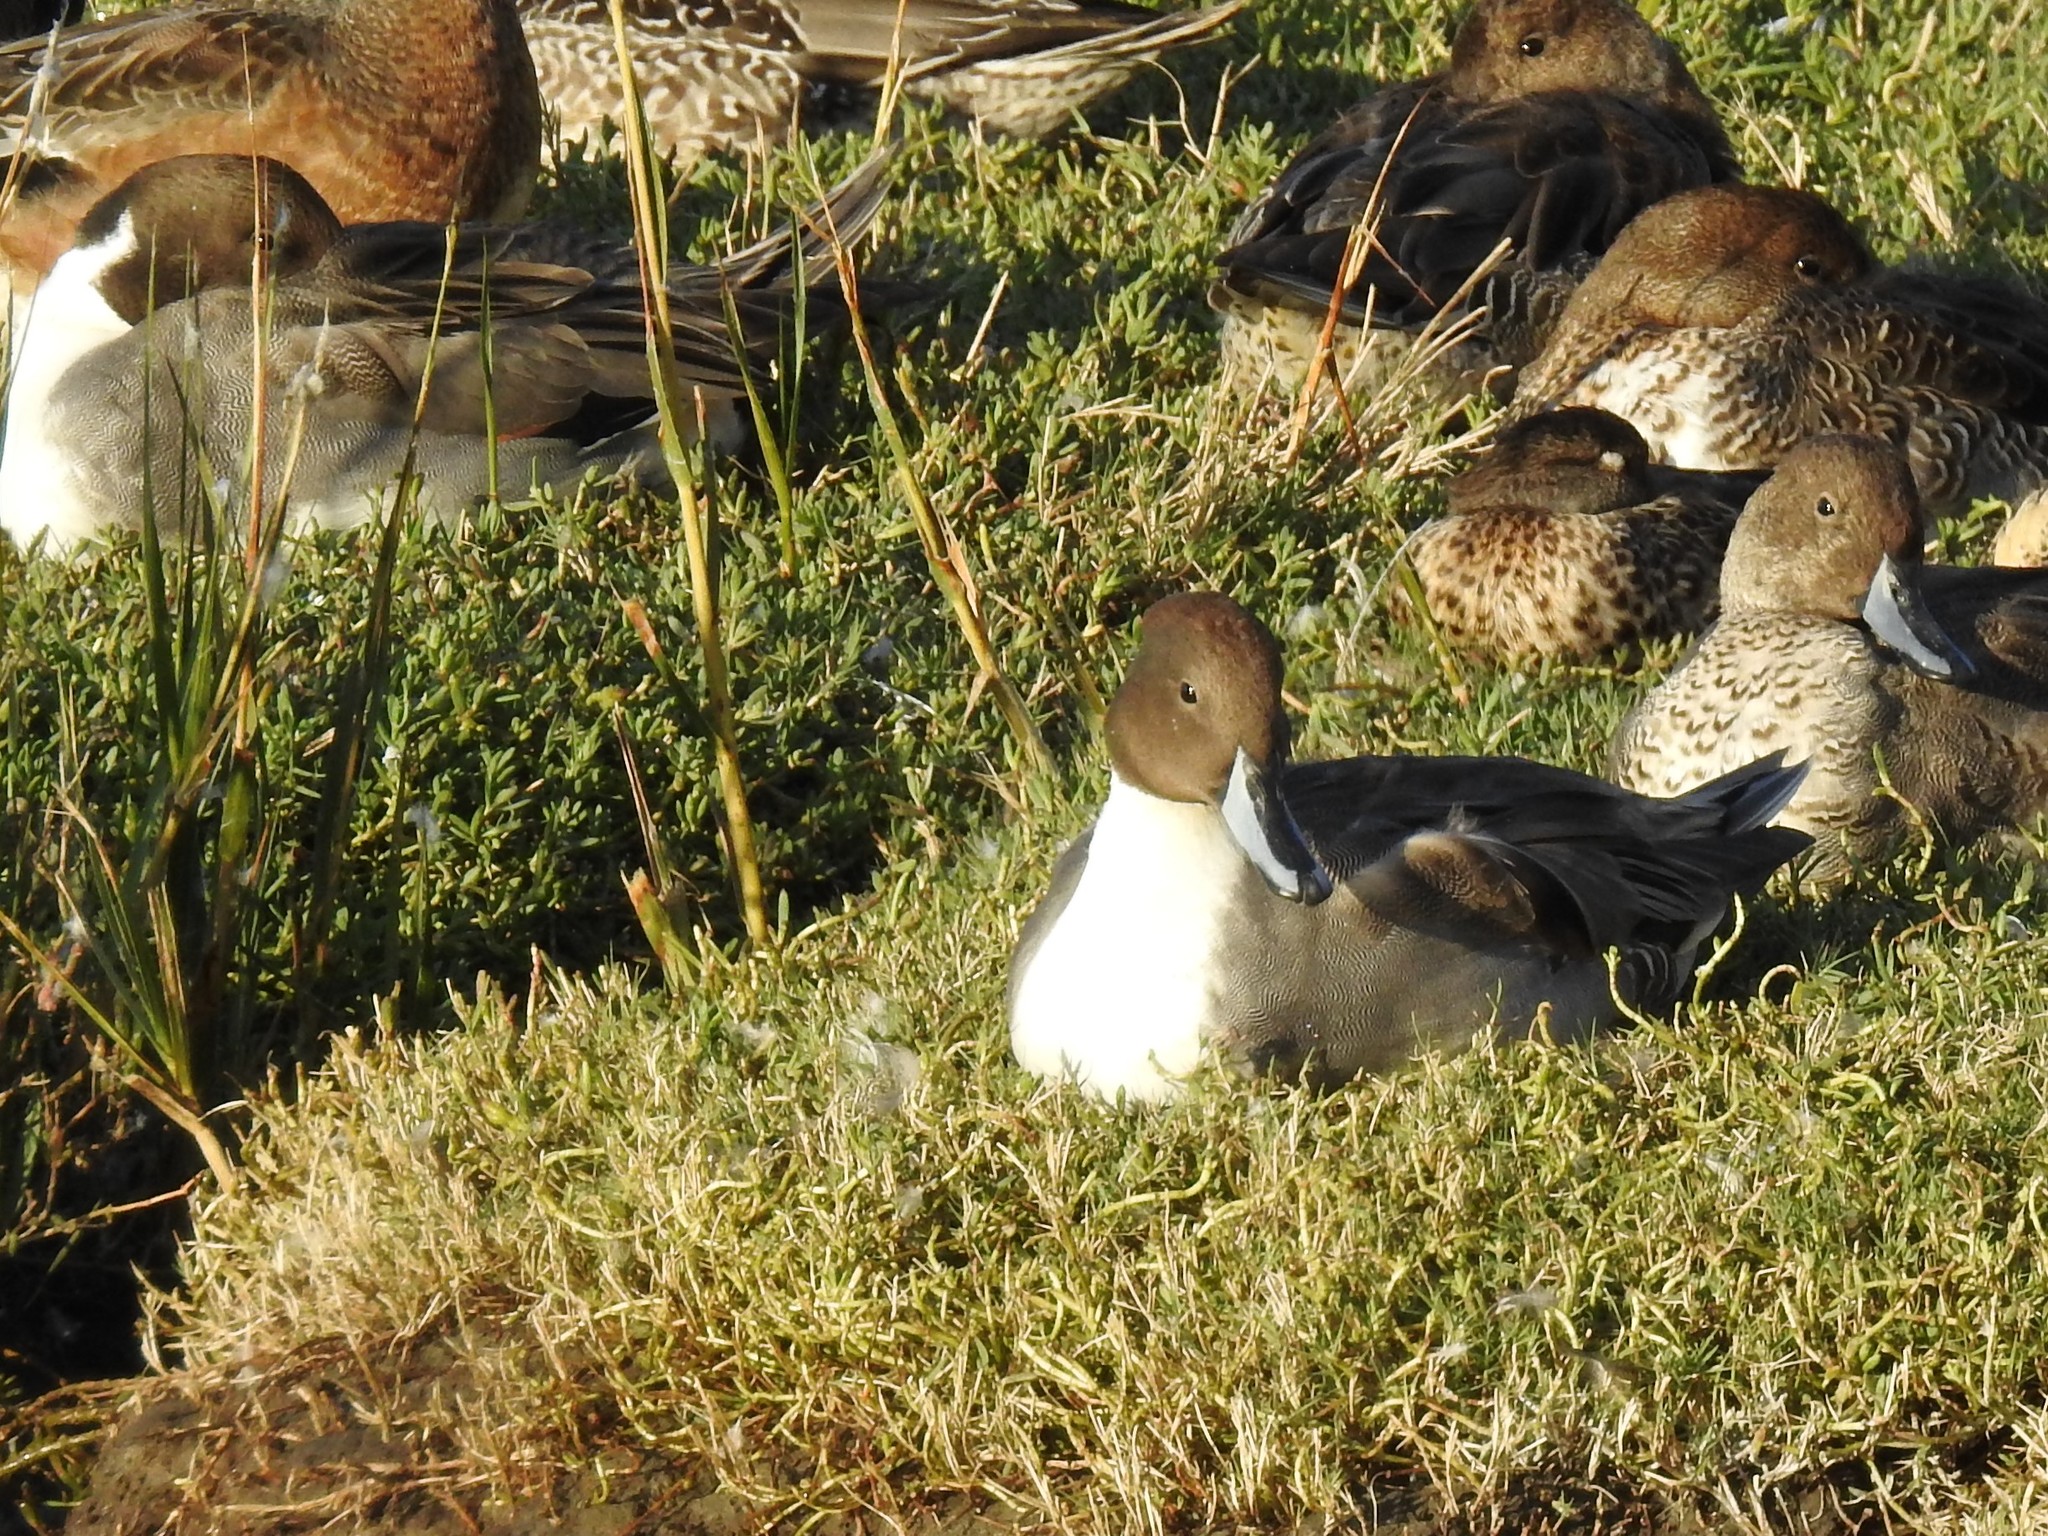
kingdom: Animalia
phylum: Chordata
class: Aves
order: Anseriformes
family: Anatidae
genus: Anas
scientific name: Anas acuta
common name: Northern pintail
